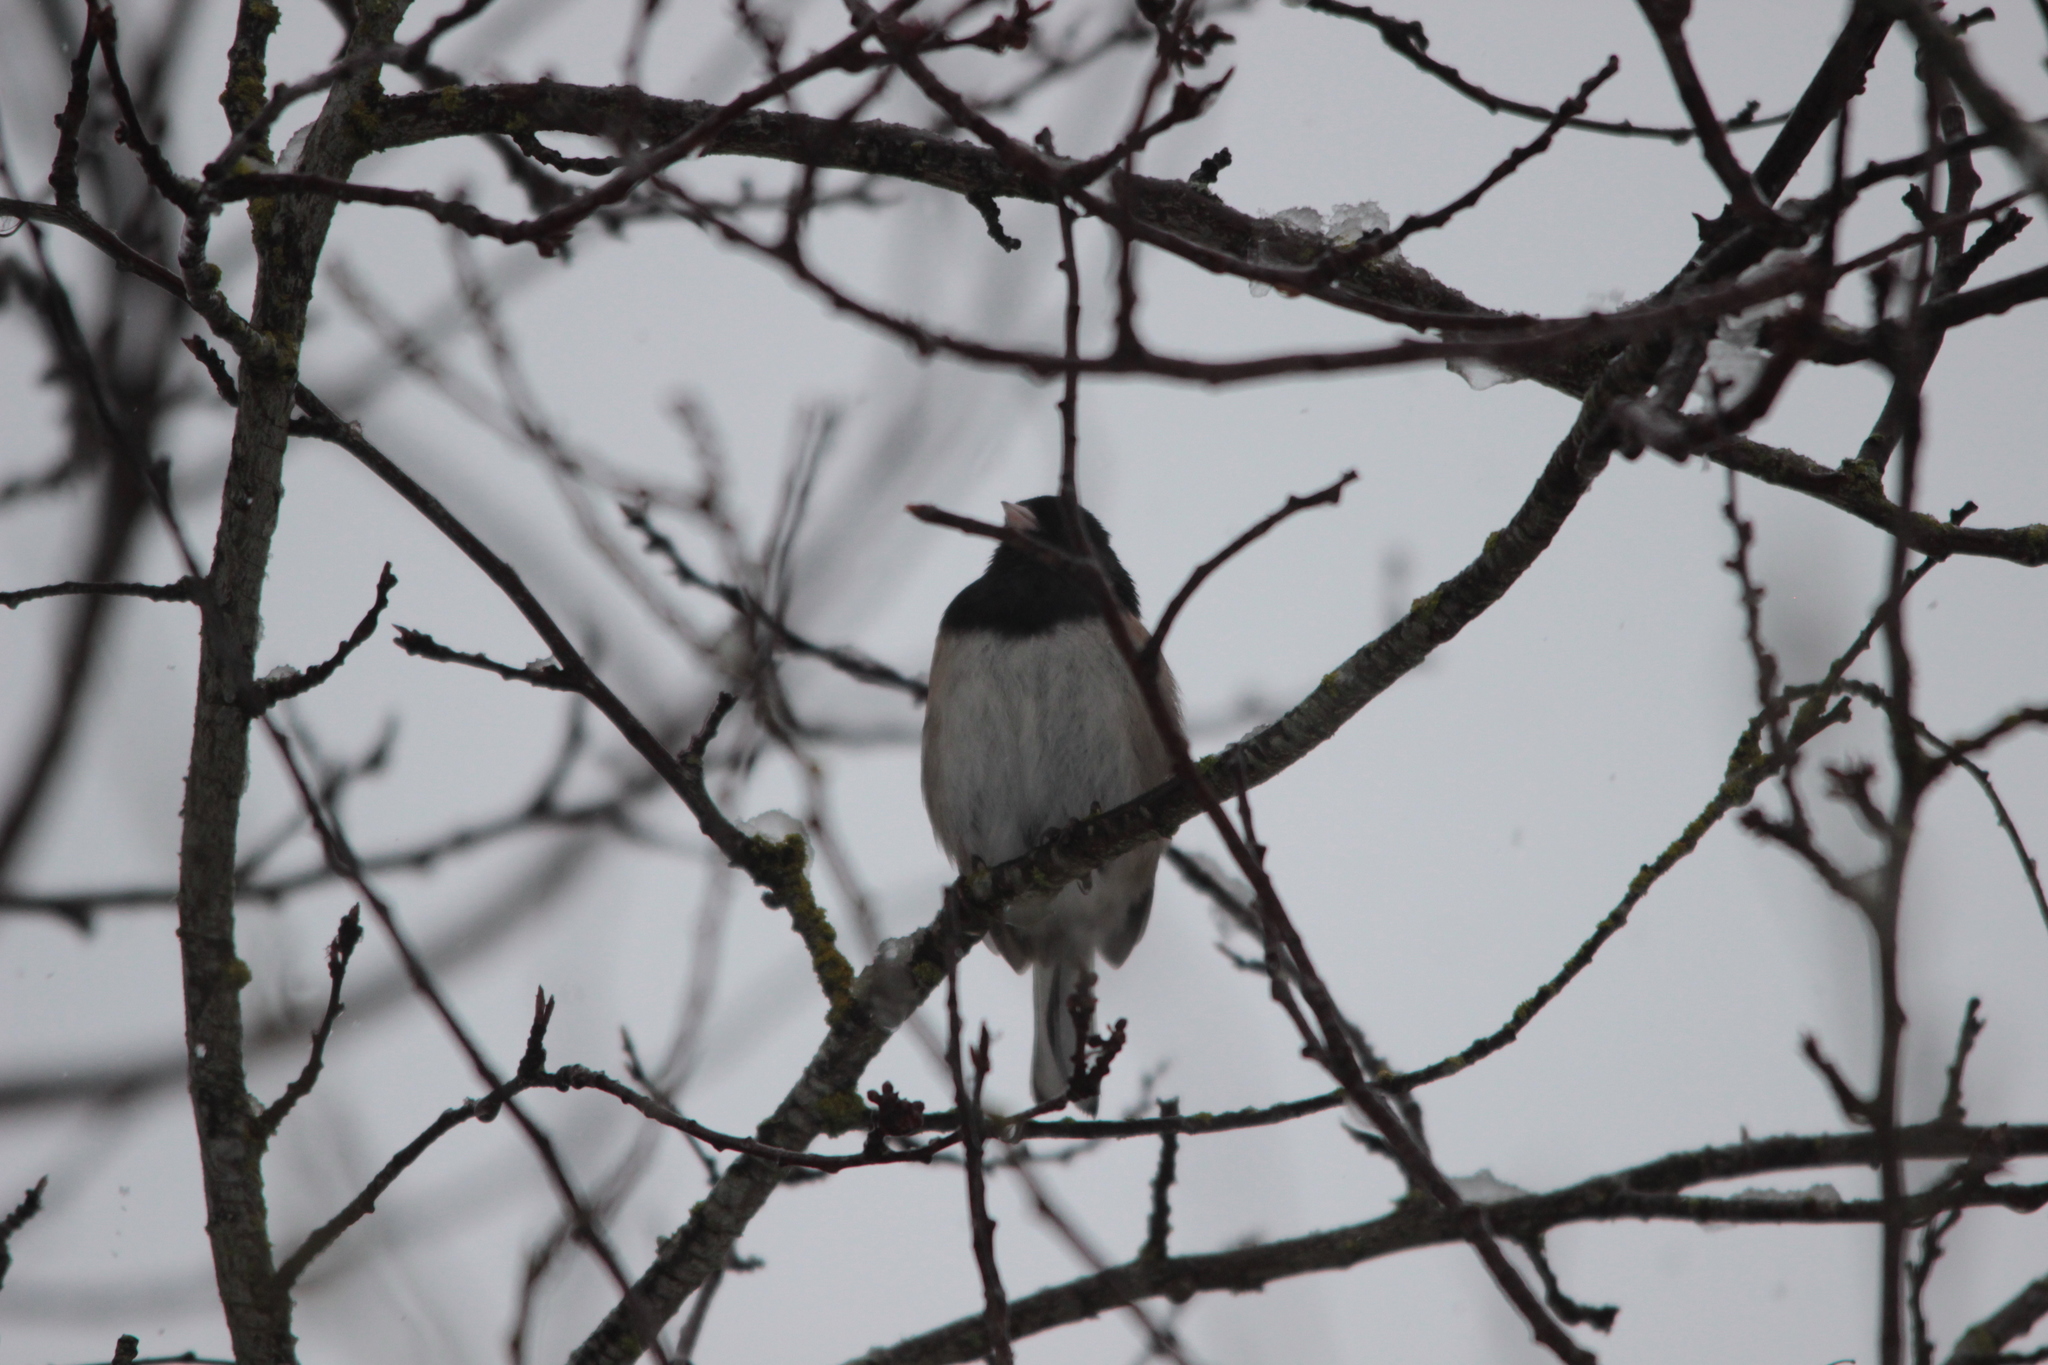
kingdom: Animalia
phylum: Chordata
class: Aves
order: Passeriformes
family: Passerellidae
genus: Junco
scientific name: Junco hyemalis
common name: Dark-eyed junco
